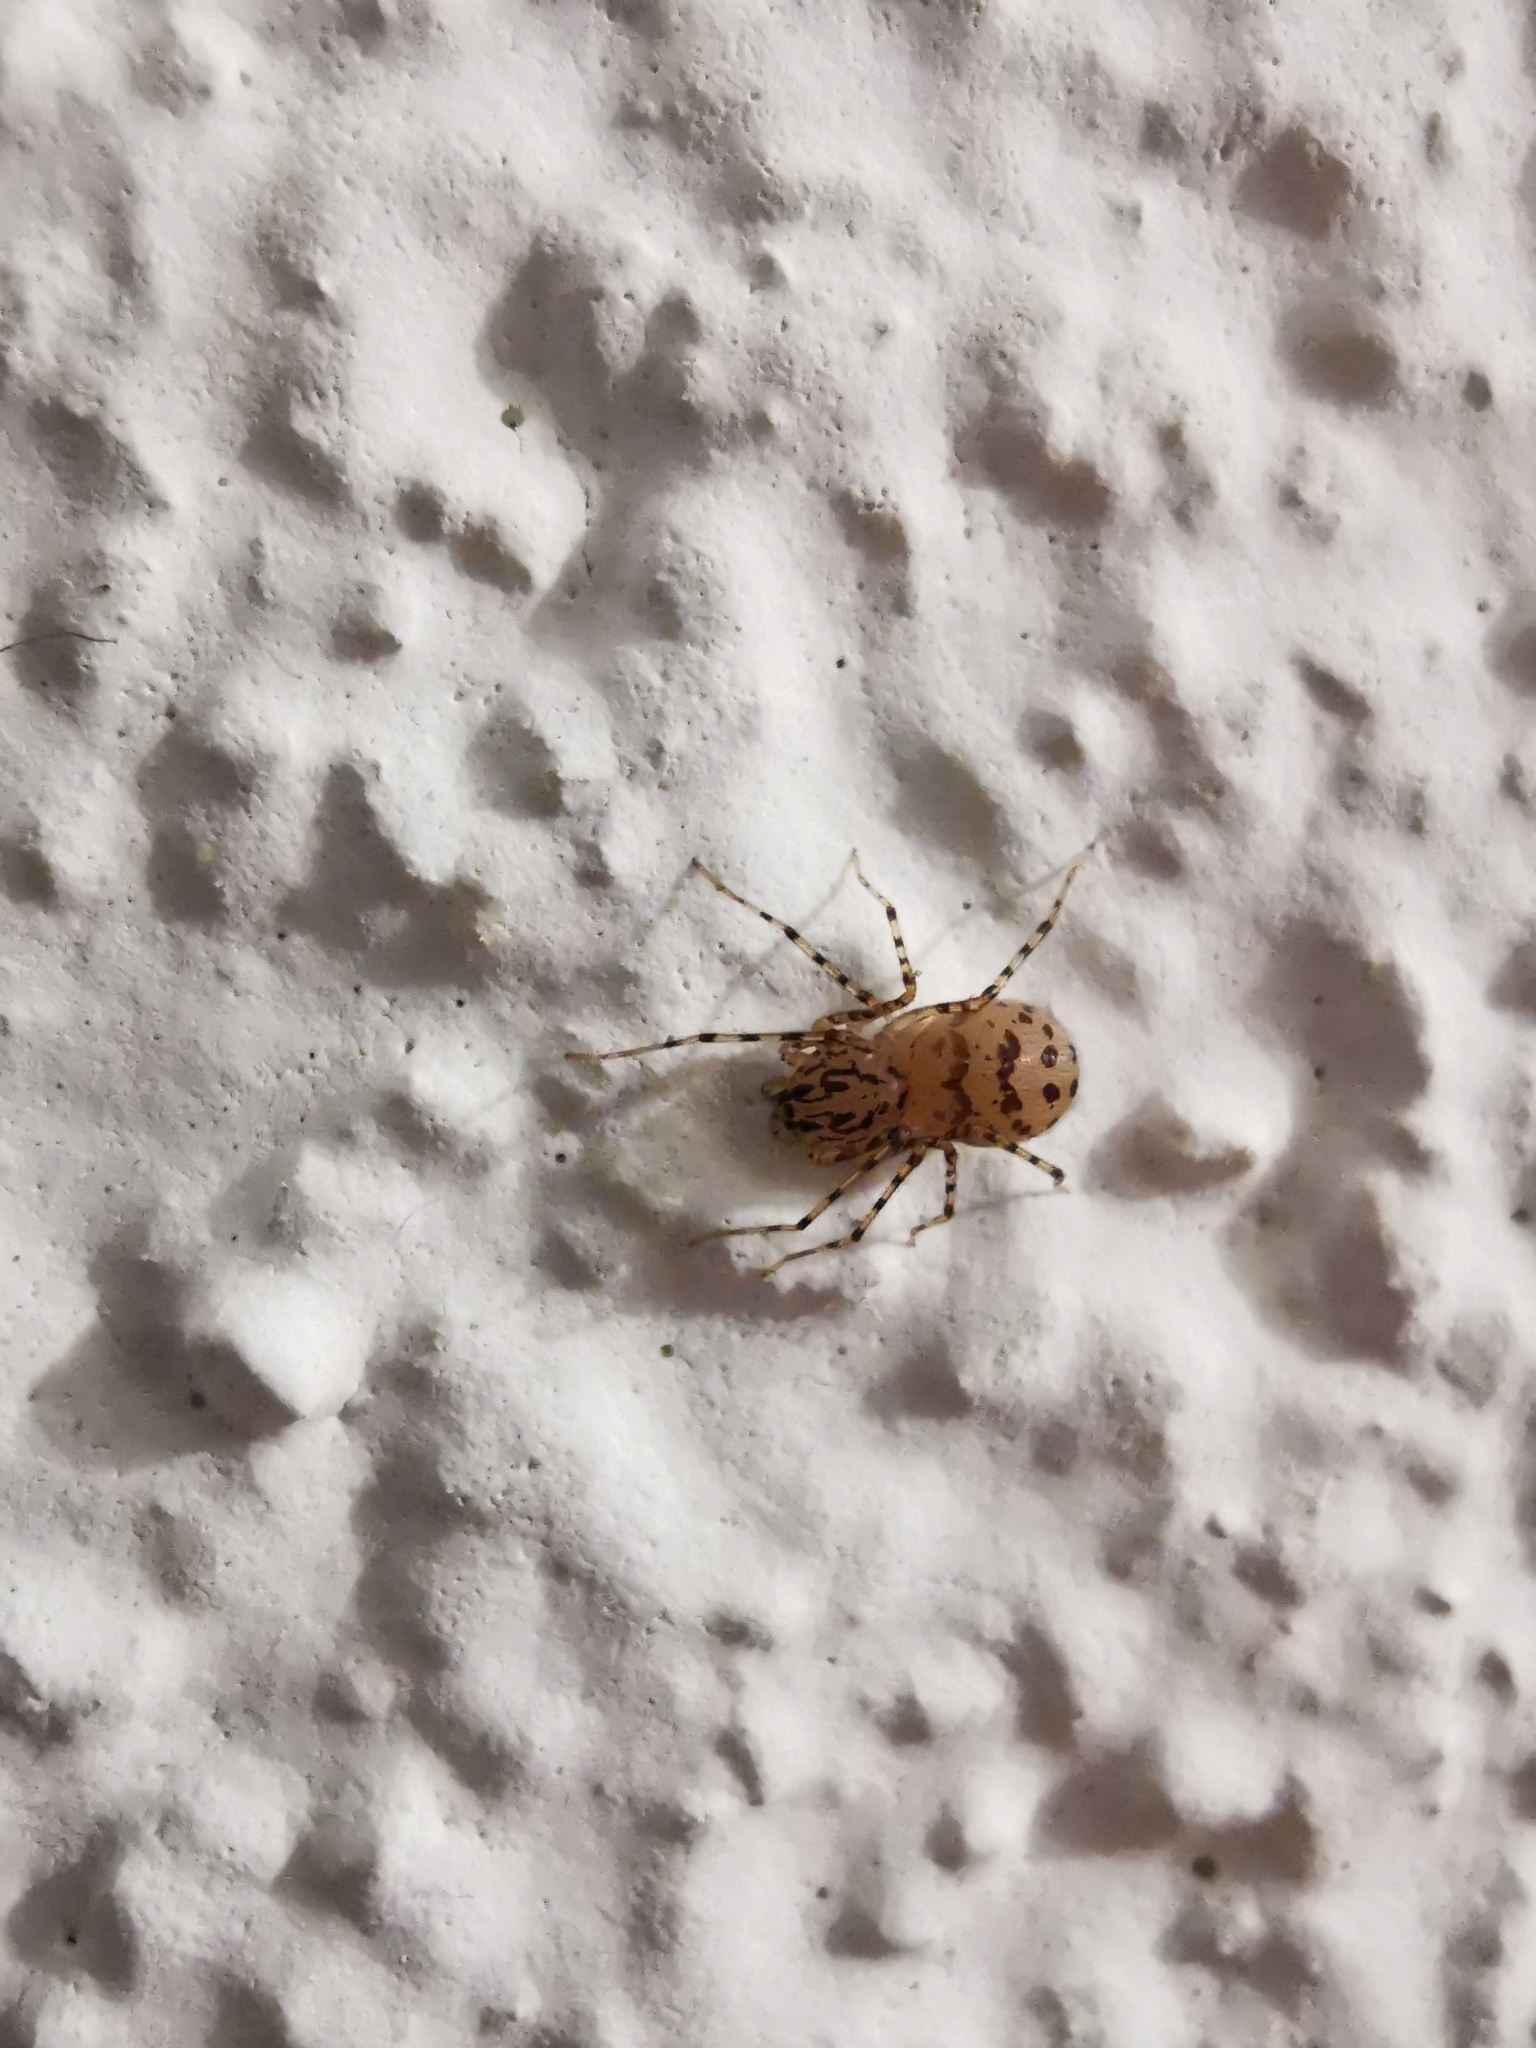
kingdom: Animalia
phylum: Arthropoda
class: Arachnida
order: Araneae
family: Scytodidae
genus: Scytodes
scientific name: Scytodes thoracica
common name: Spitting spider
